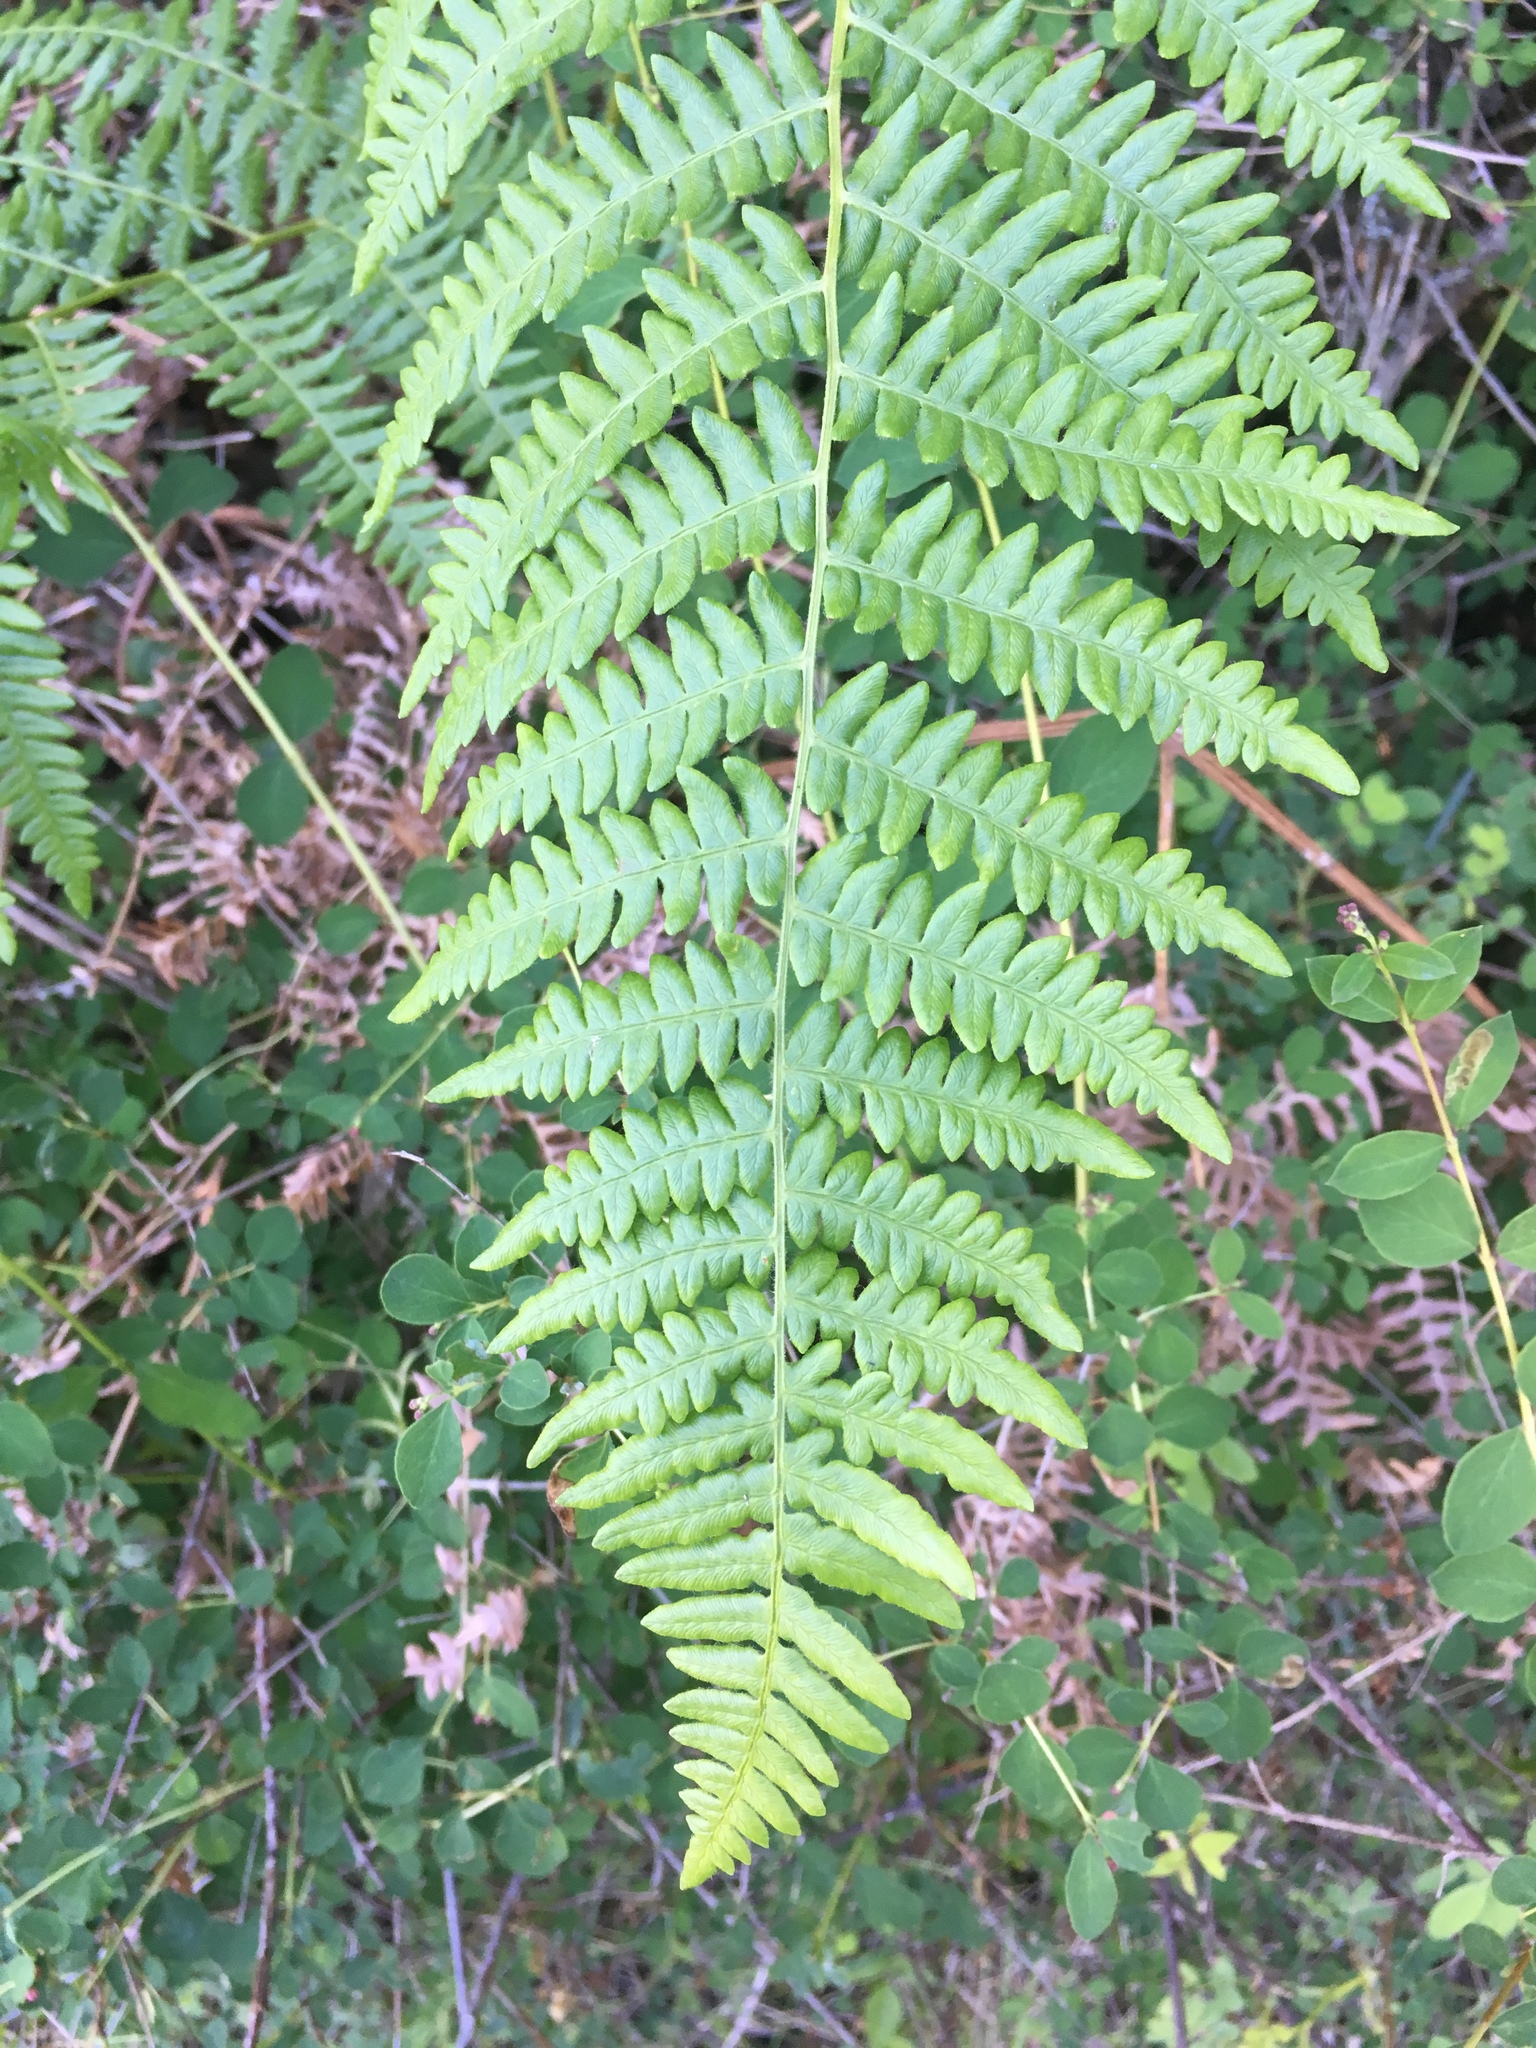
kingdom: Plantae
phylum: Tracheophyta
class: Polypodiopsida
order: Polypodiales
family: Dennstaedtiaceae
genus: Pteridium
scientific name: Pteridium aquilinum
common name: Bracken
